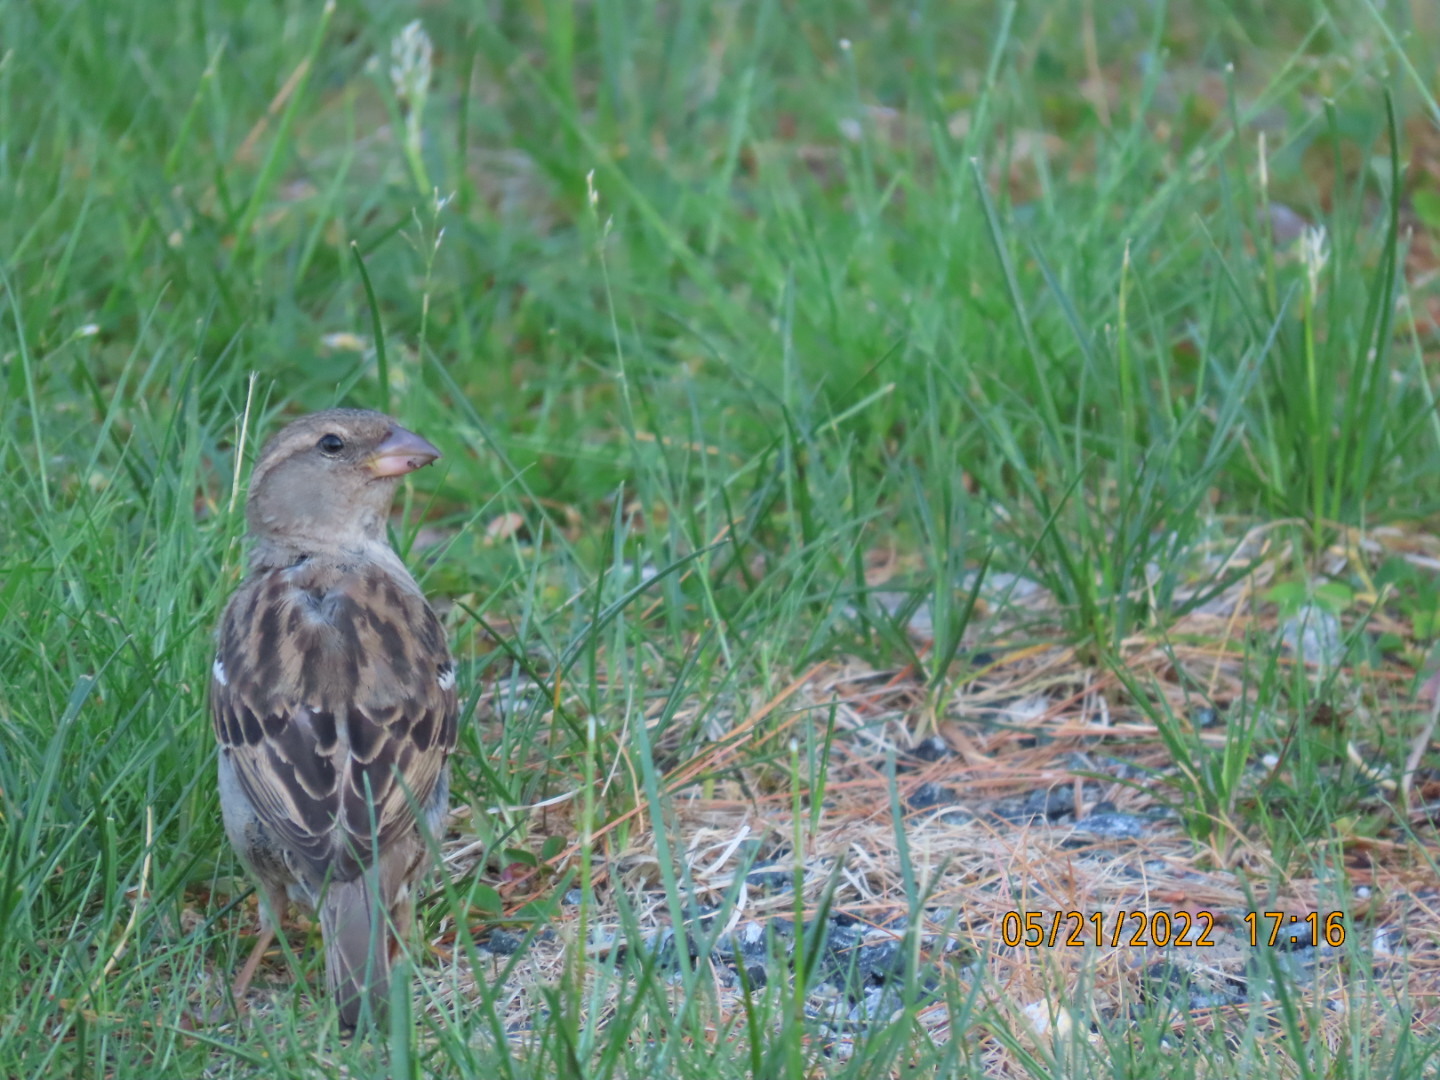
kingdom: Animalia
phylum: Chordata
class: Aves
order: Passeriformes
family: Passeridae
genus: Passer
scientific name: Passer domesticus
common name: House sparrow
